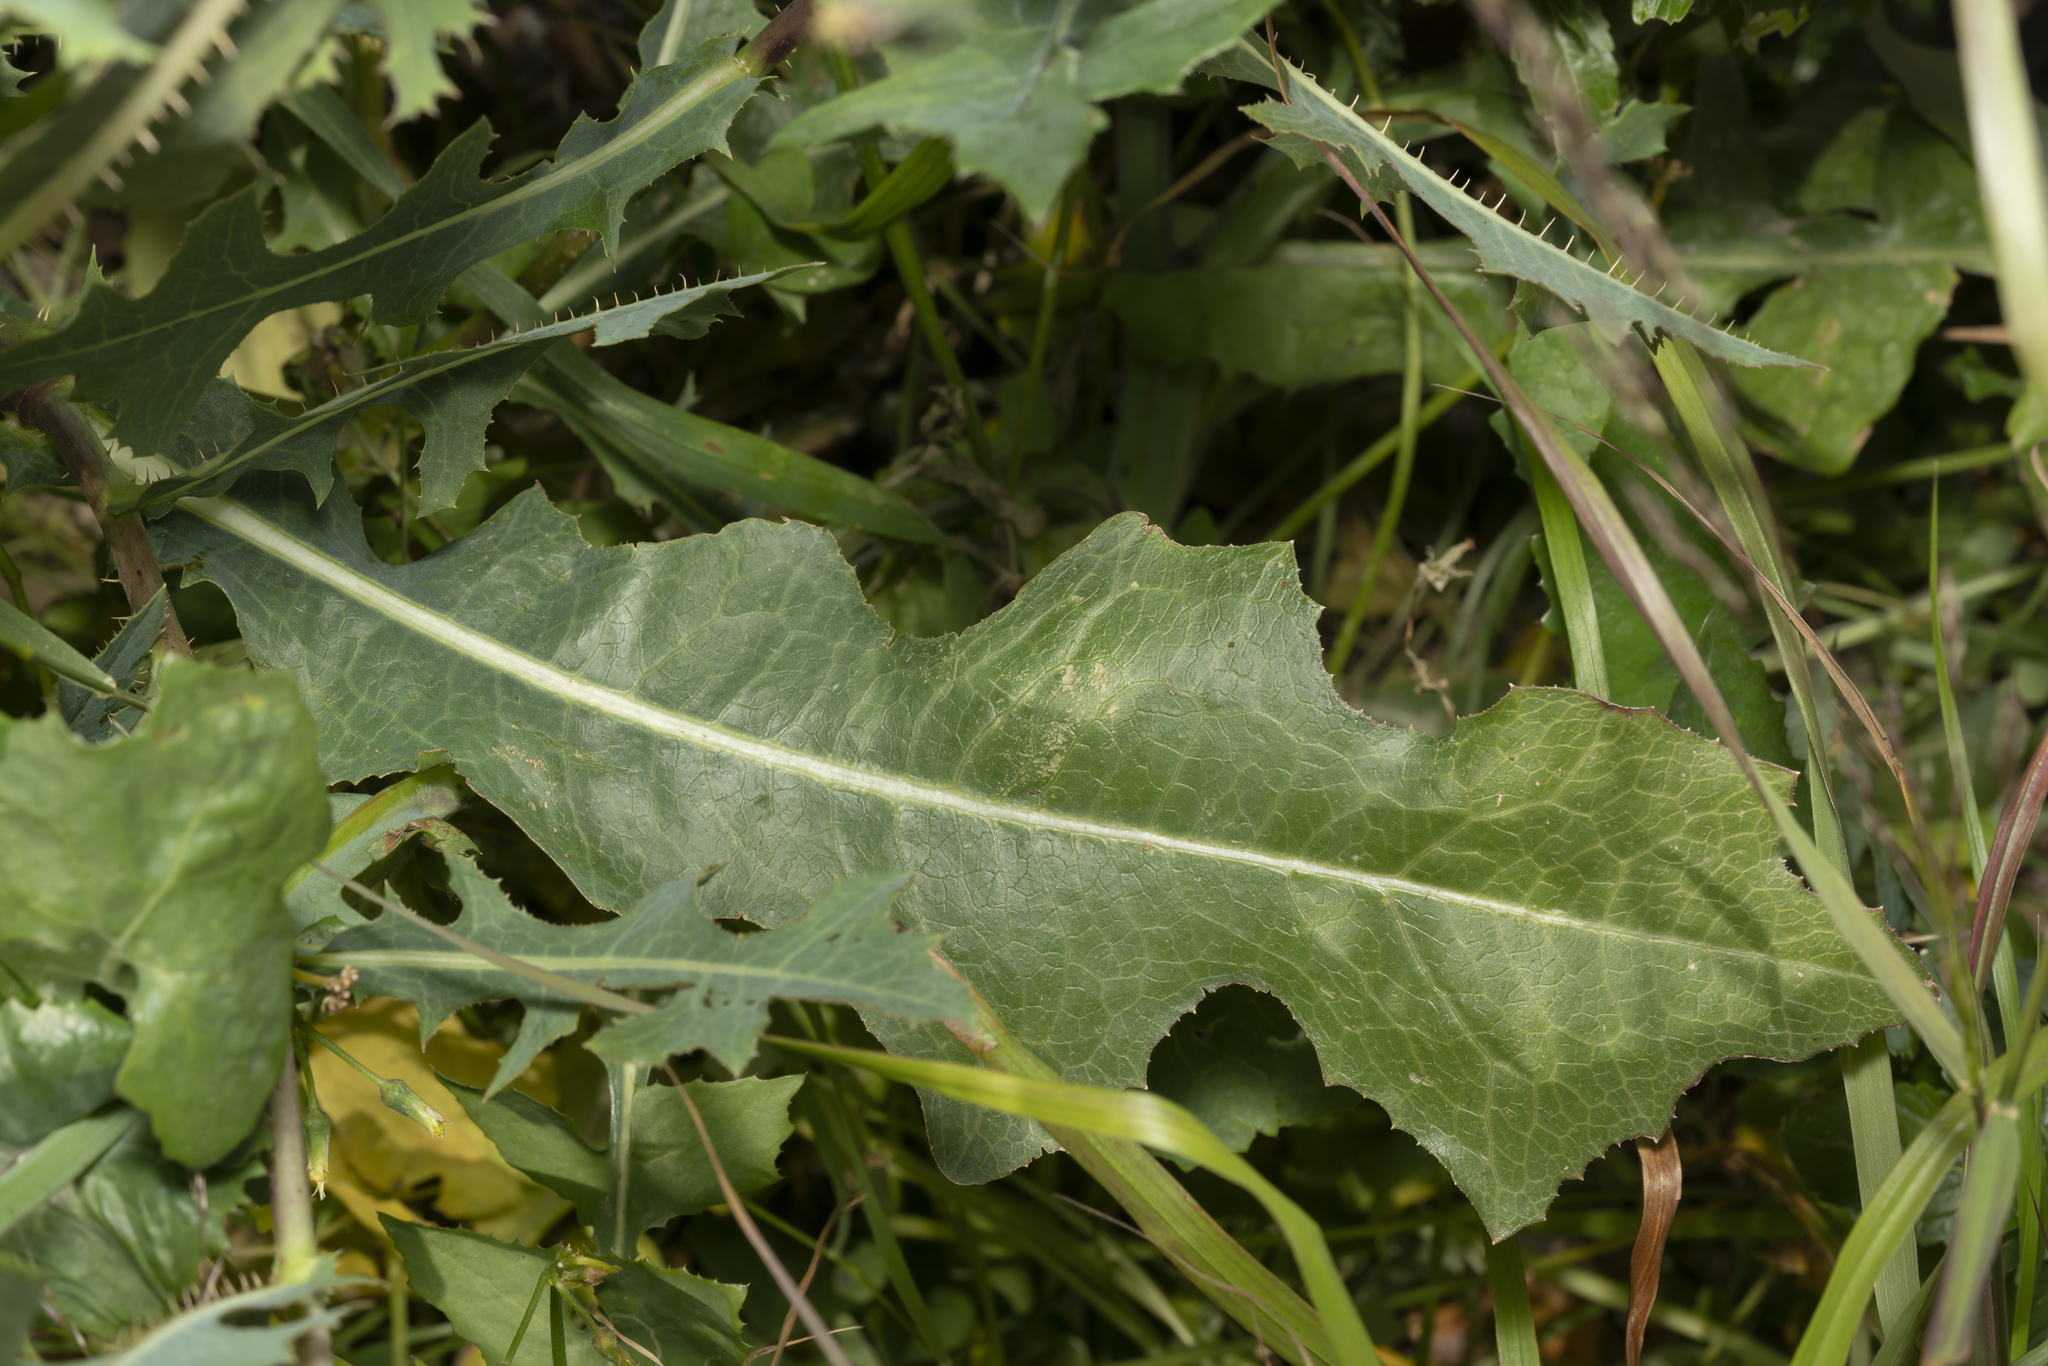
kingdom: Plantae
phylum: Tracheophyta
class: Magnoliopsida
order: Asterales
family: Asteraceae
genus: Lactuca
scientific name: Lactuca serriola
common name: Prickly lettuce
